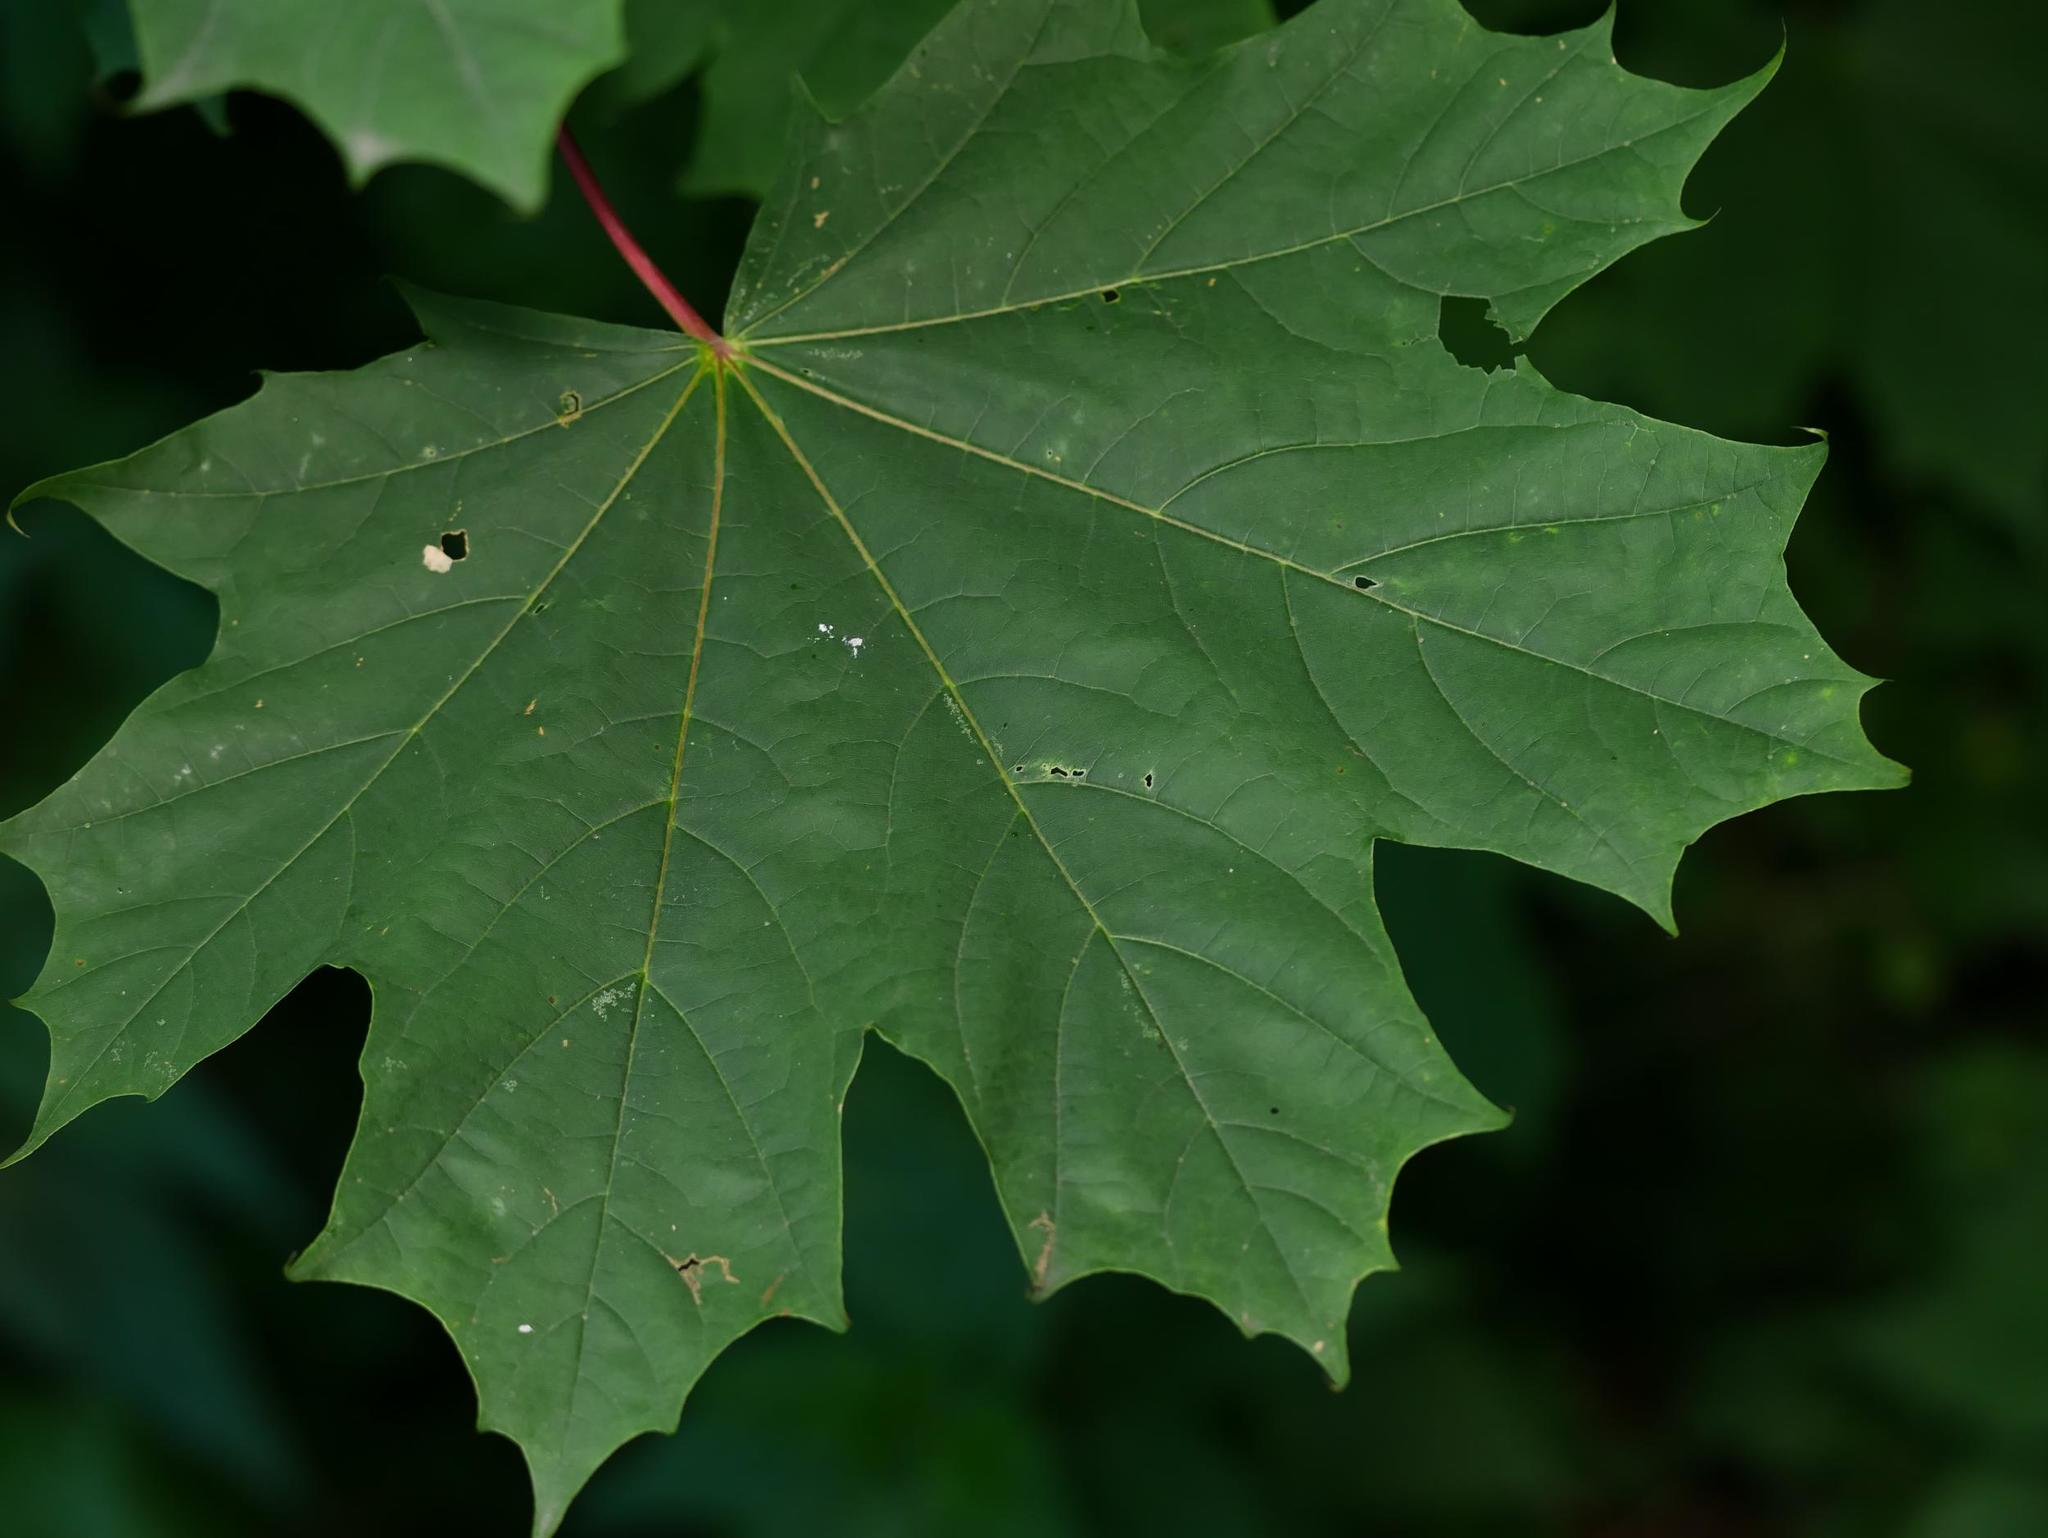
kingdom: Plantae
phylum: Tracheophyta
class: Magnoliopsida
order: Sapindales
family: Sapindaceae
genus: Acer
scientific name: Acer platanoides
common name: Norway maple
